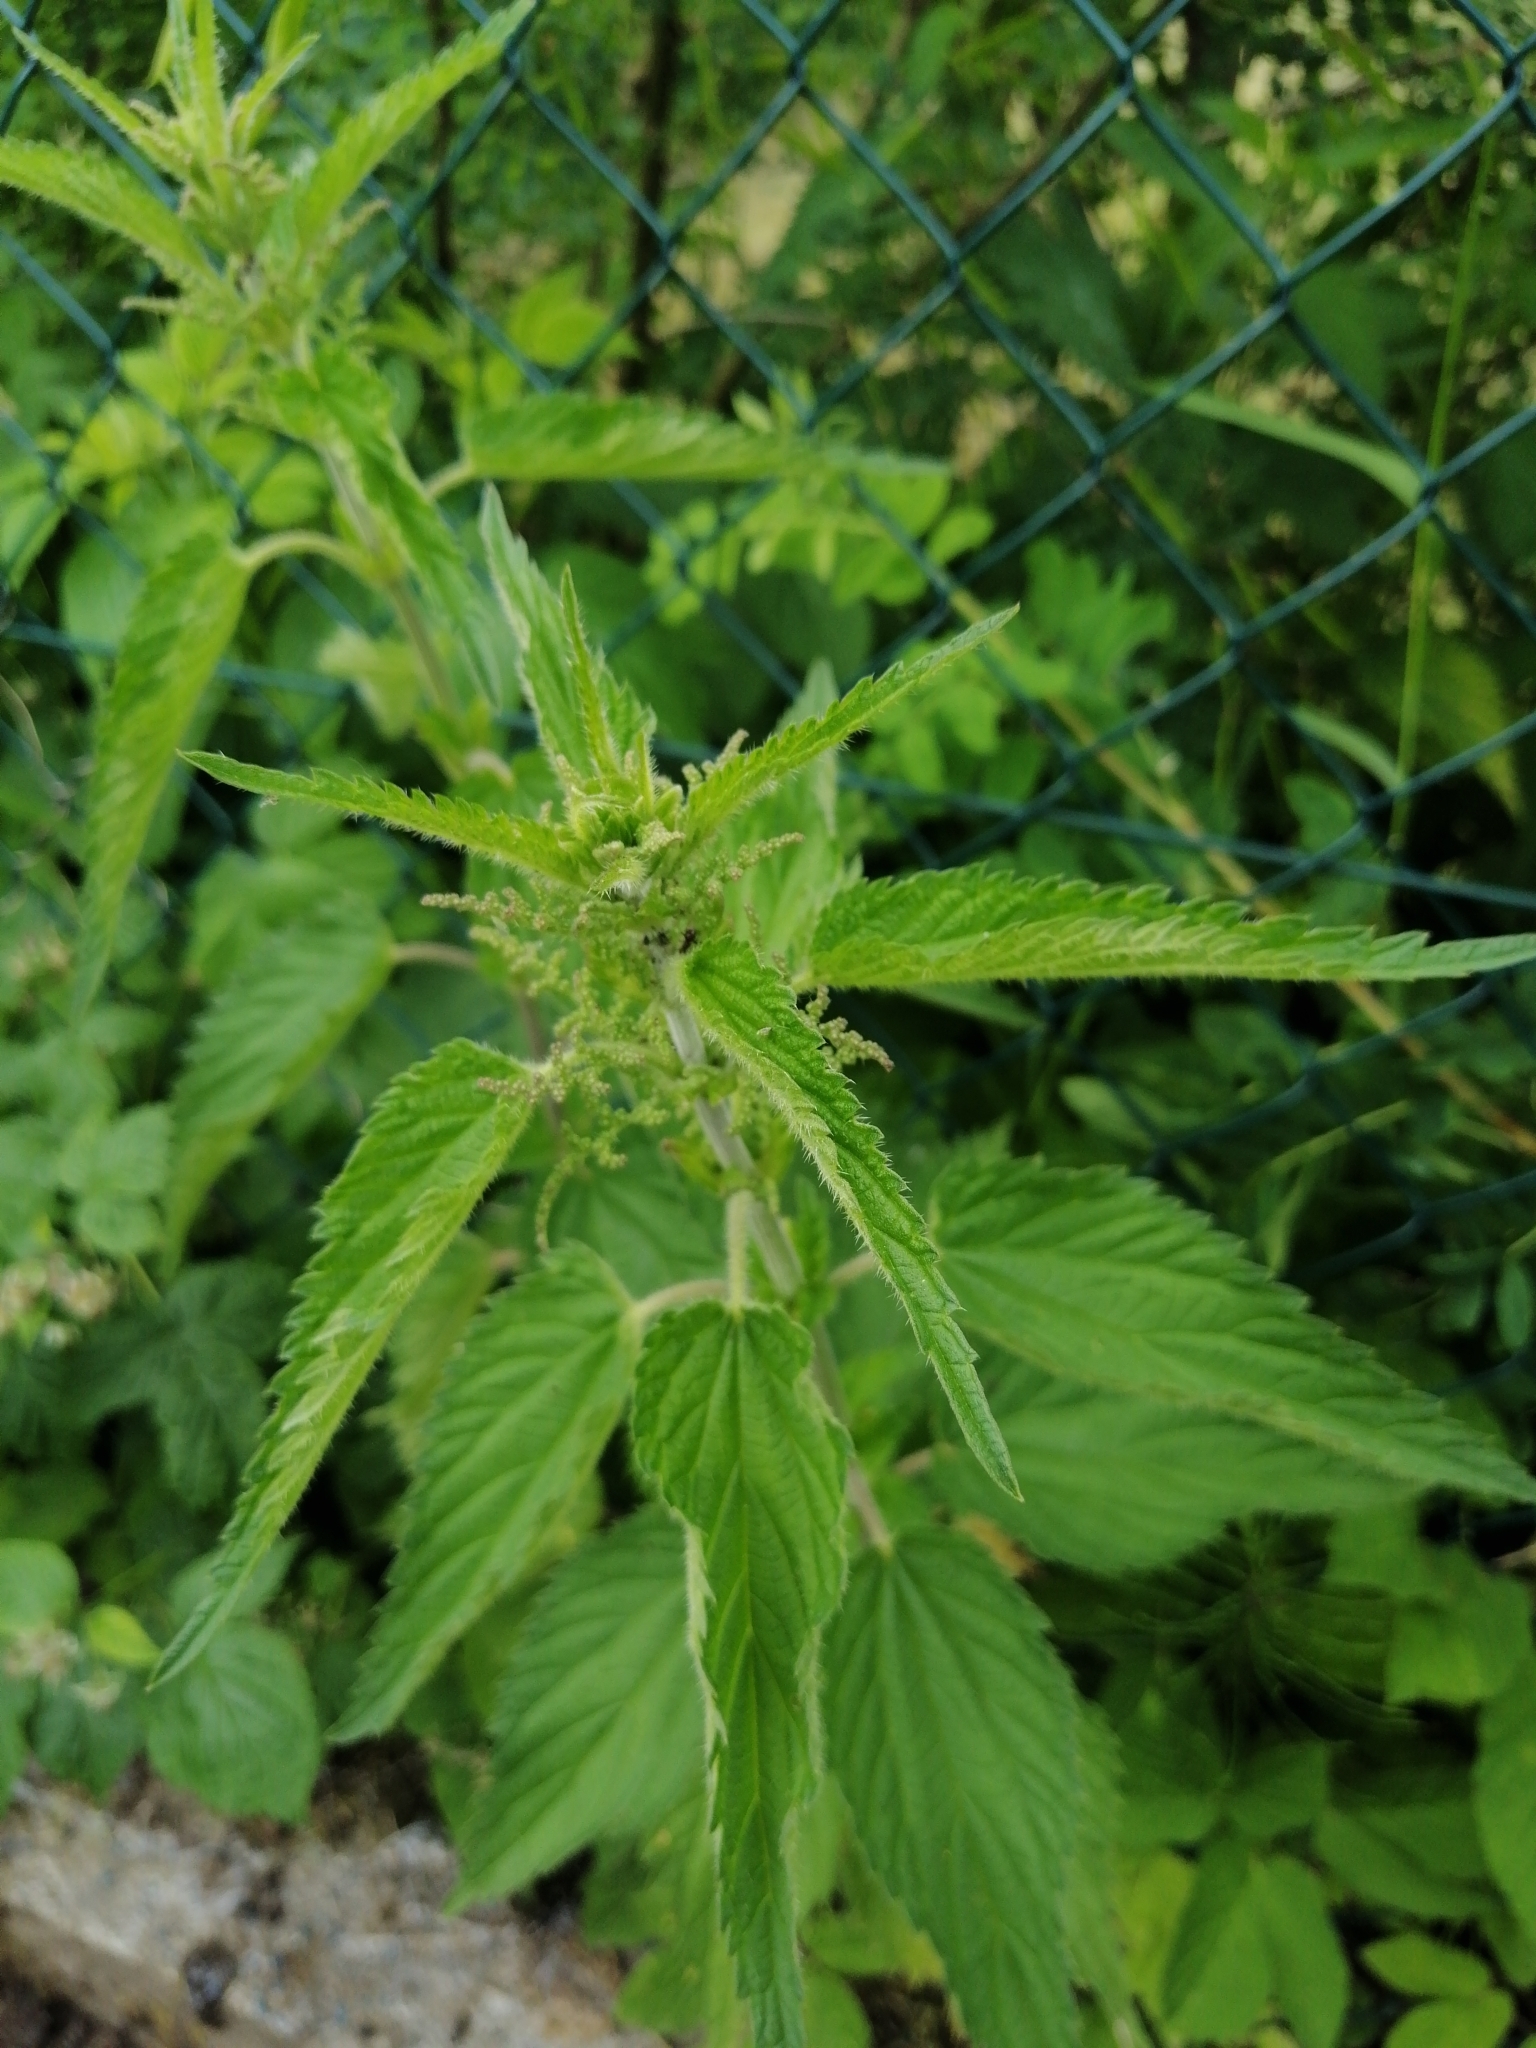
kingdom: Plantae
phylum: Tracheophyta
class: Magnoliopsida
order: Rosales
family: Urticaceae
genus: Urtica
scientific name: Urtica dioica
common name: Common nettle
